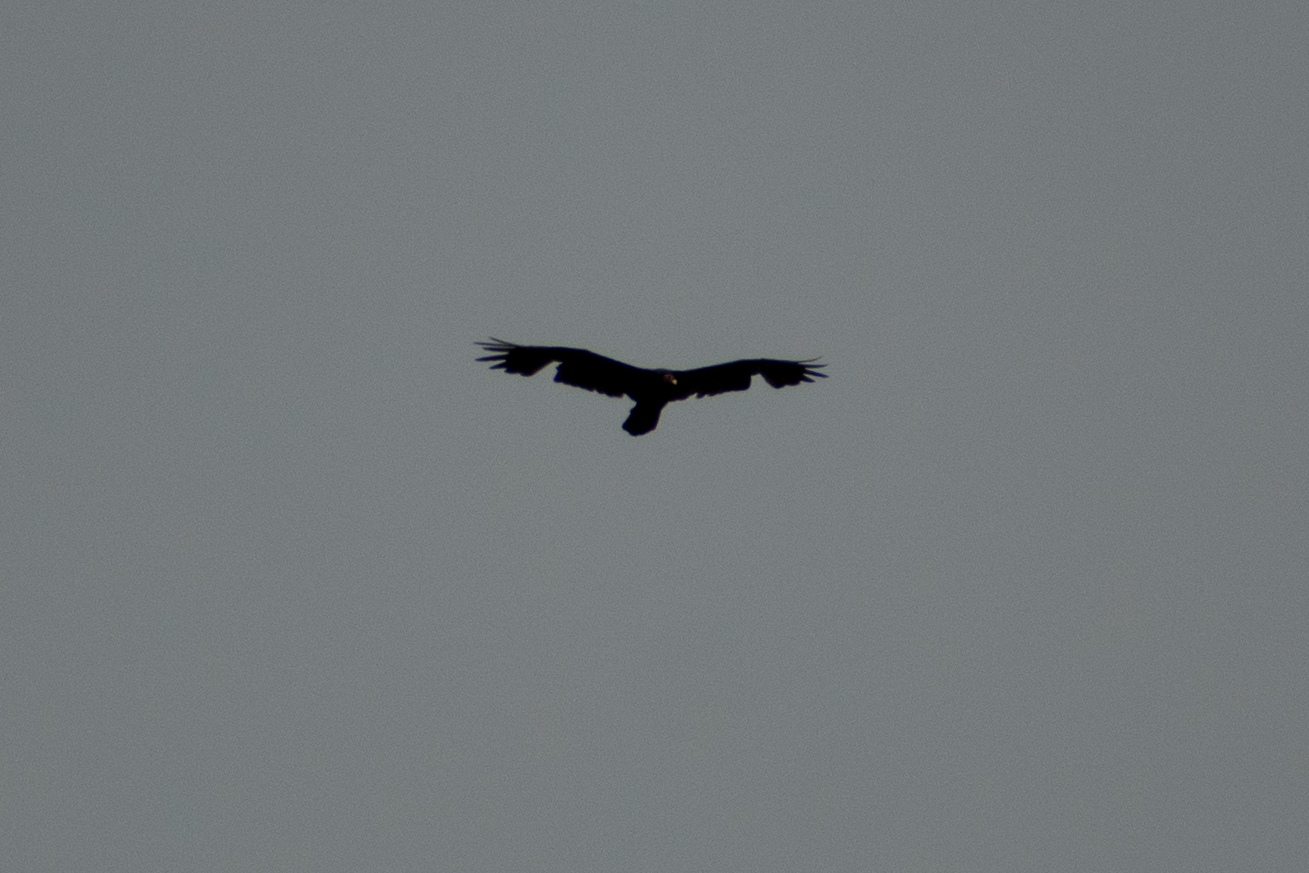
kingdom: Animalia
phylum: Chordata
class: Aves
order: Accipitriformes
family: Cathartidae
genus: Cathartes
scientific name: Cathartes aura
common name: Turkey vulture
